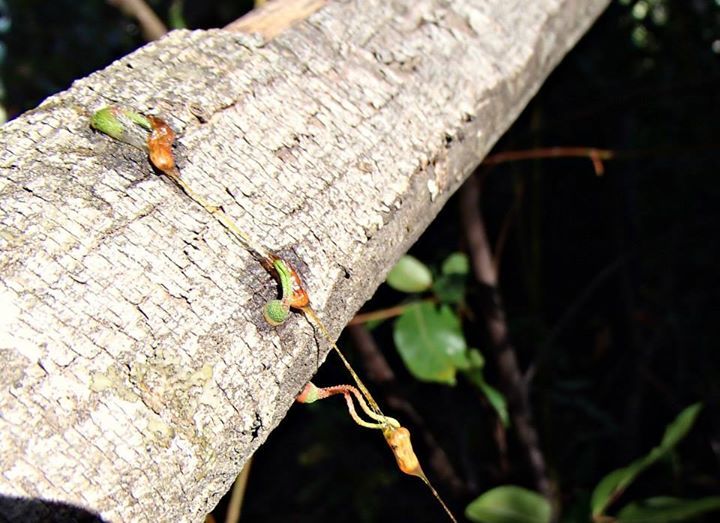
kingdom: Plantae
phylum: Tracheophyta
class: Magnoliopsida
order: Santalales
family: Loranthaceae
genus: Tristerix
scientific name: Tristerix corymbosus
